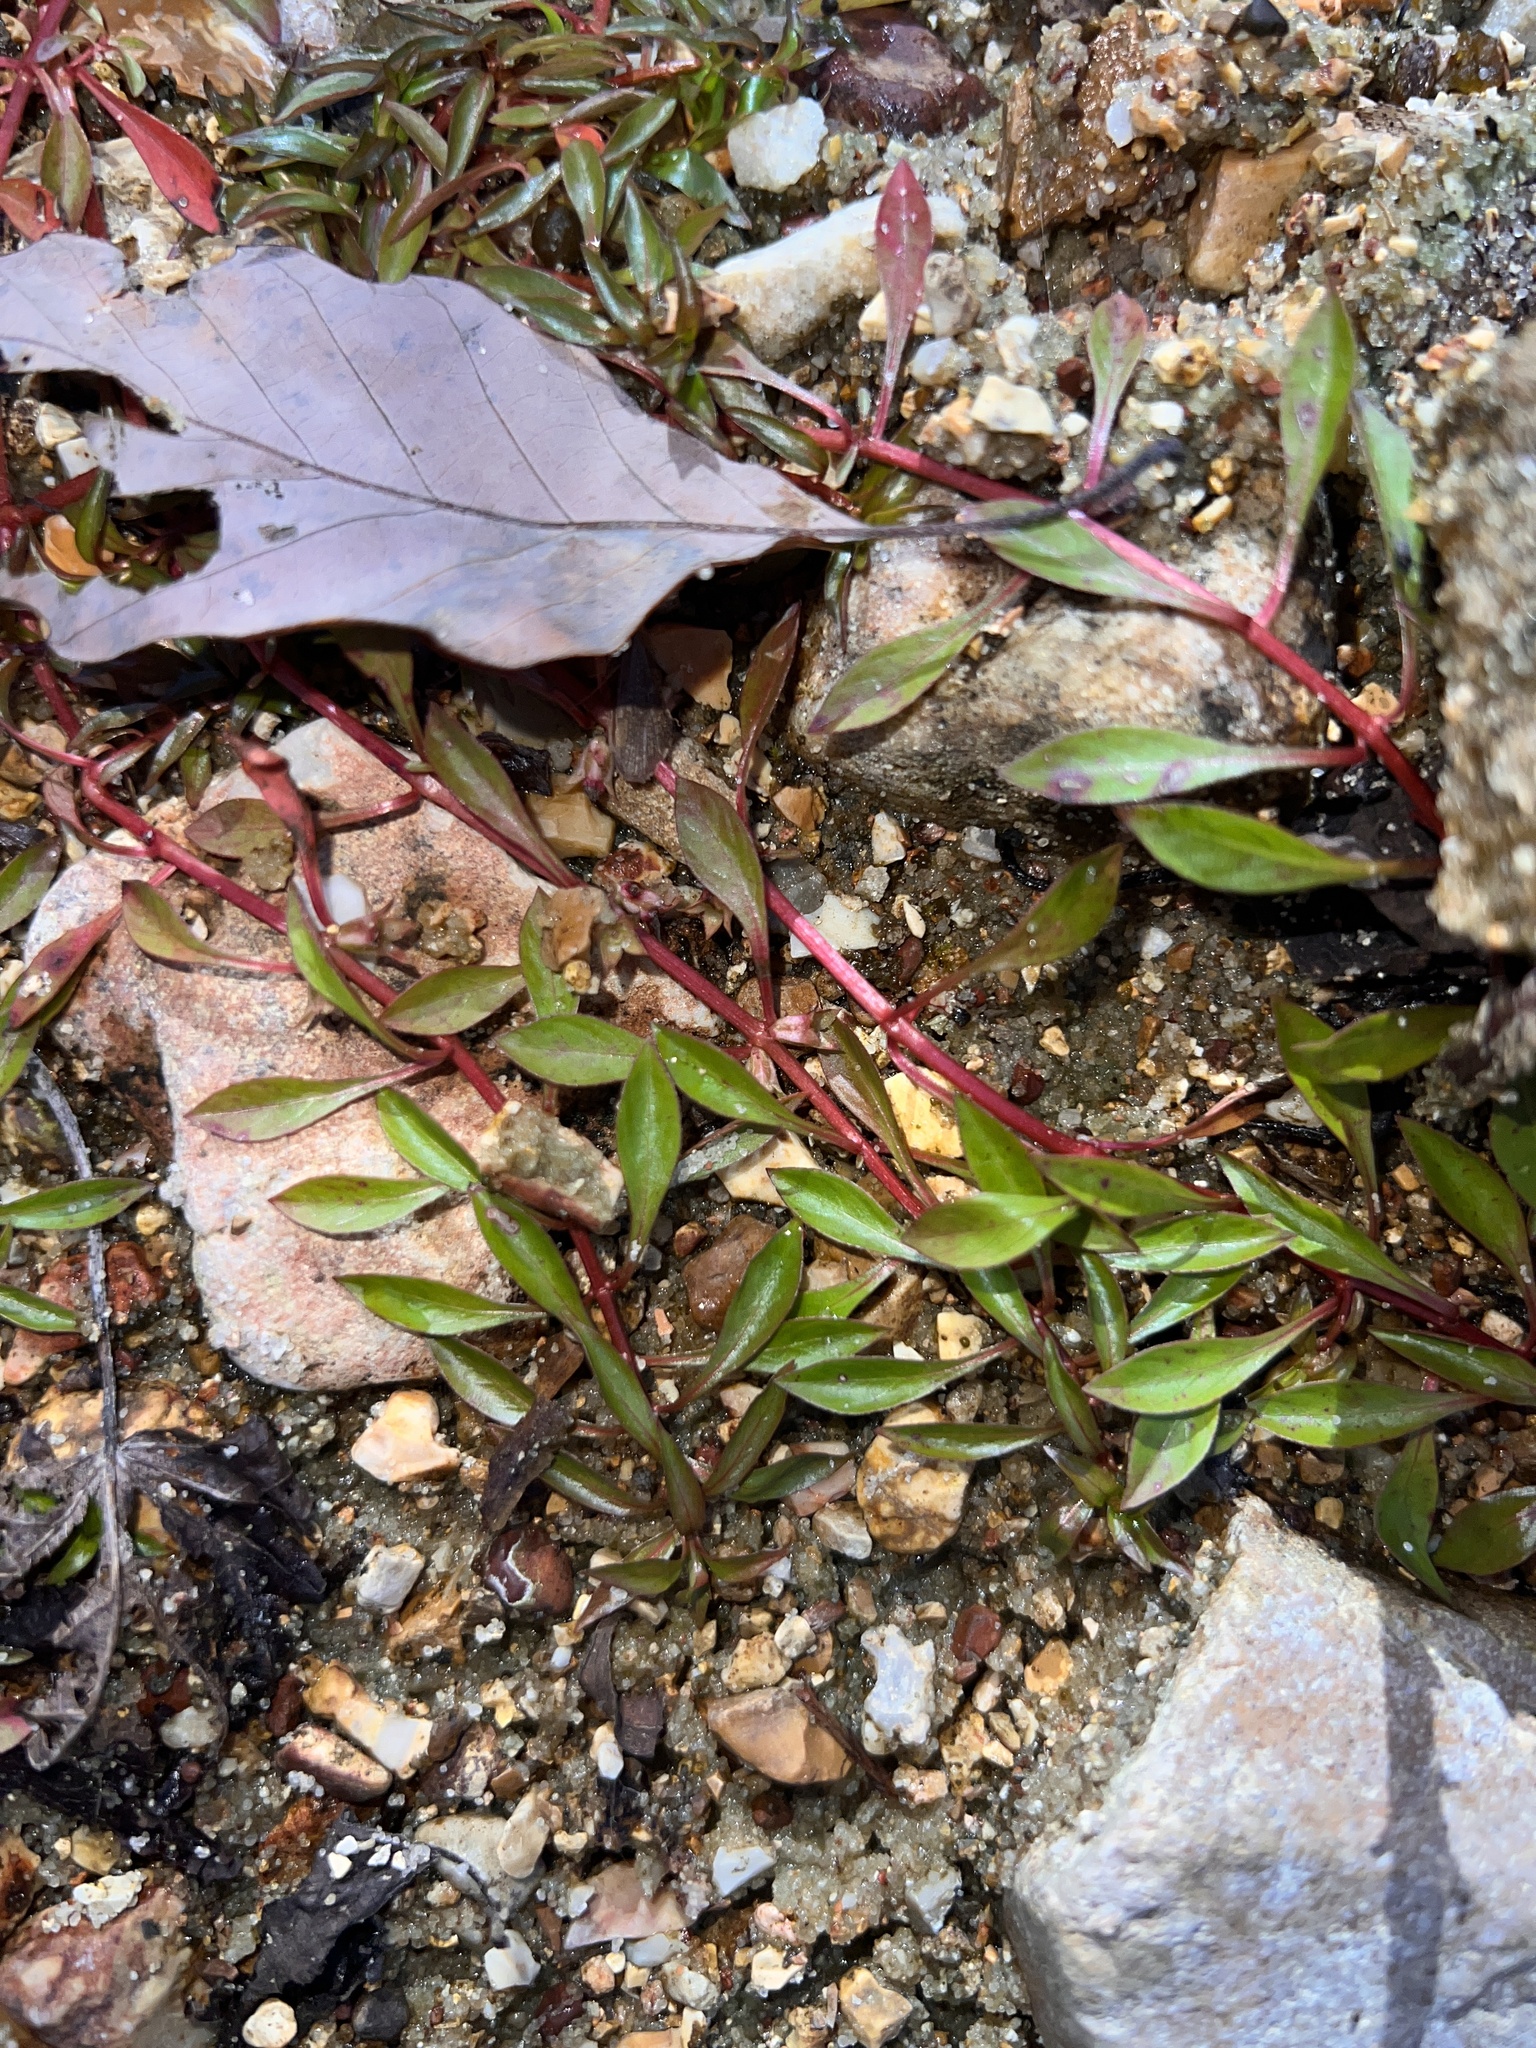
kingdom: Plantae
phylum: Tracheophyta
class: Magnoliopsida
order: Myrtales
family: Onagraceae
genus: Ludwigia
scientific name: Ludwigia palustris
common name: Hampshire-purslane
